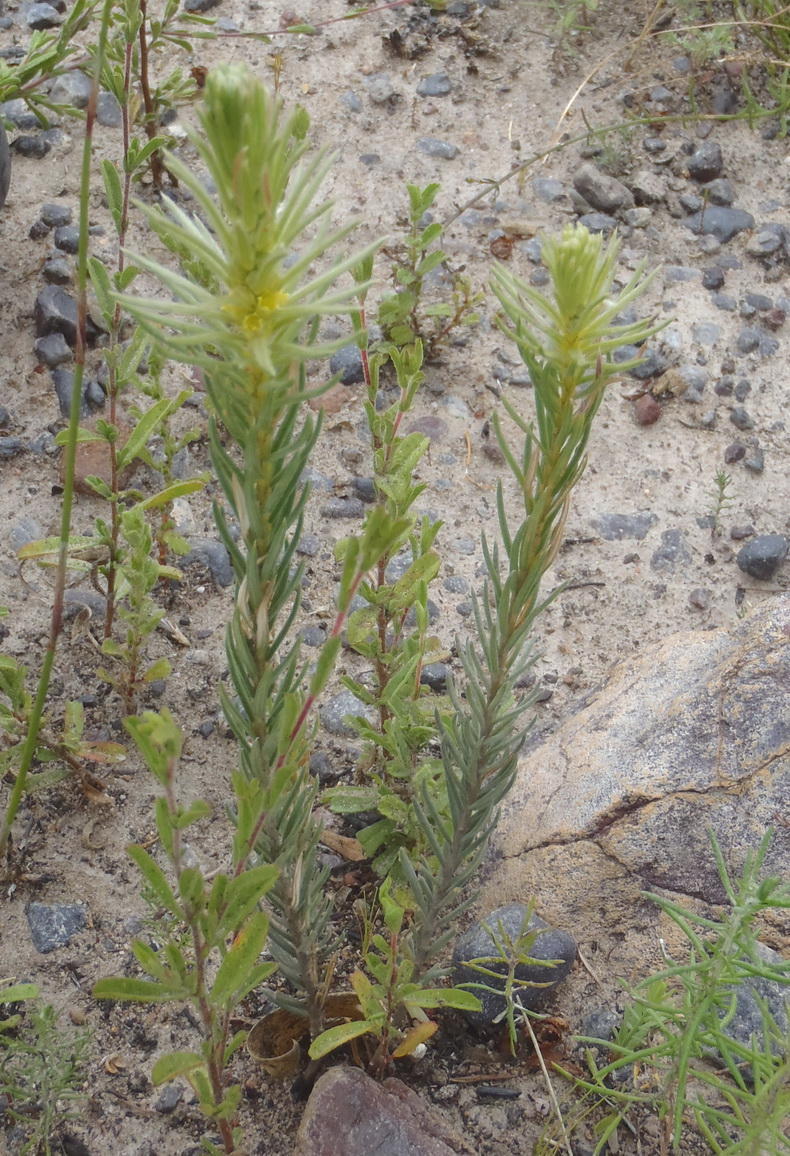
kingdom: Plantae
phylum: Tracheophyta
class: Magnoliopsida
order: Rosales
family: Rhamnaceae
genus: Phylica
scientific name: Phylica velutina
